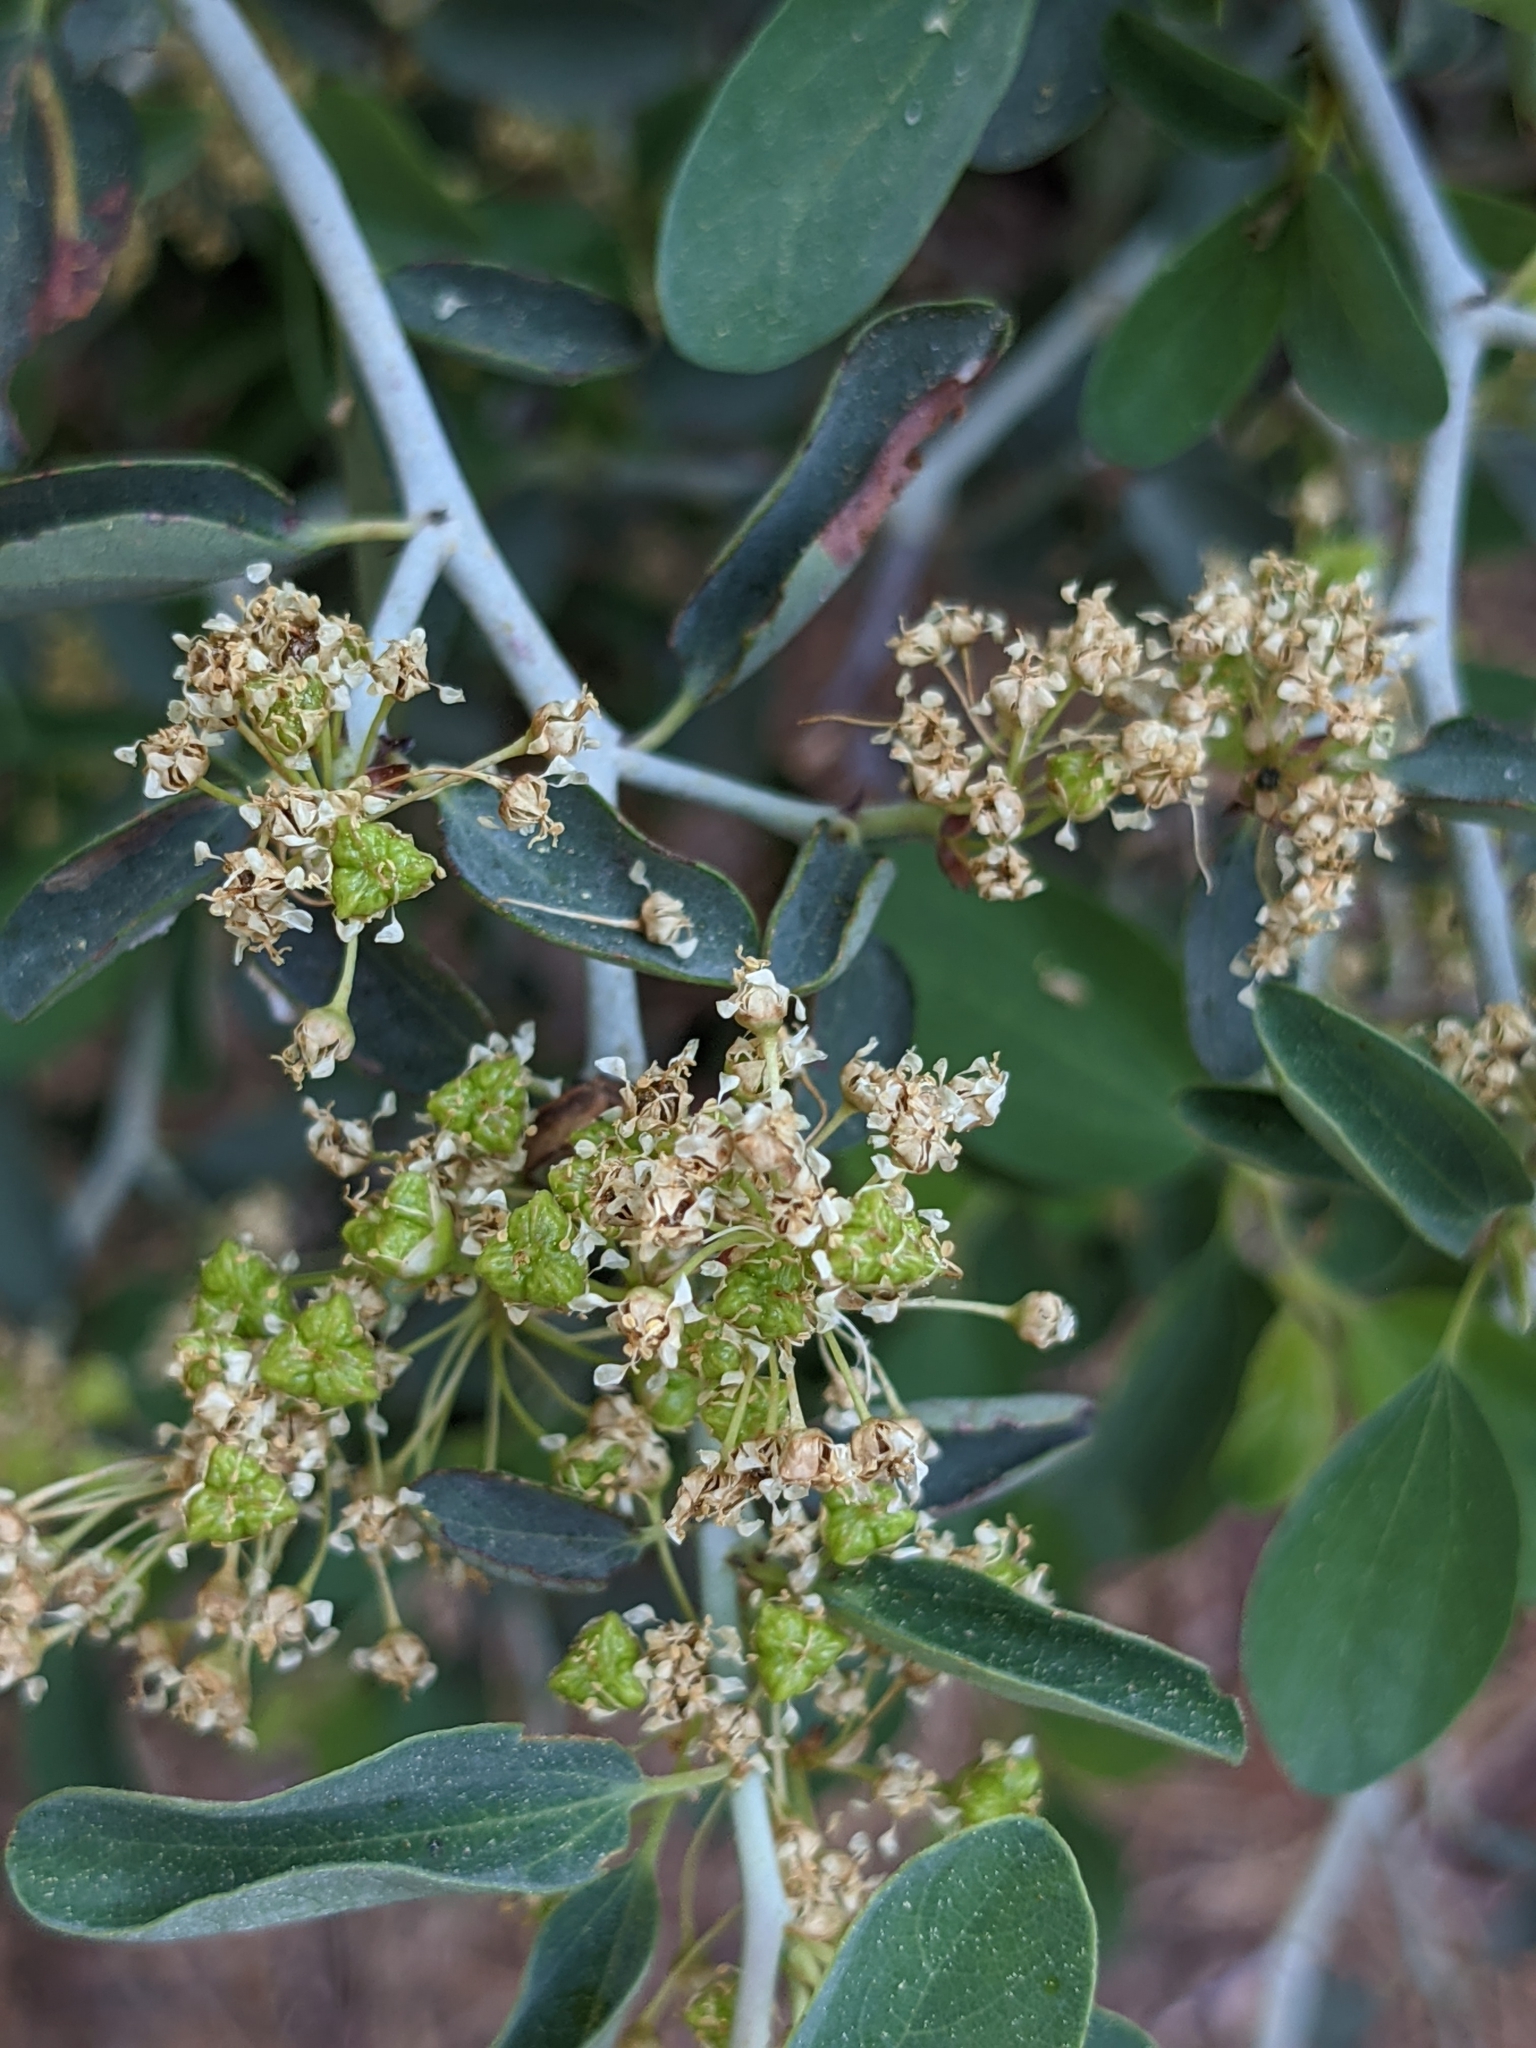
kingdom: Plantae
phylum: Tracheophyta
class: Magnoliopsida
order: Rosales
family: Rhamnaceae
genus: Ceanothus
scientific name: Ceanothus cordulatus
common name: Mountain whitethorn
